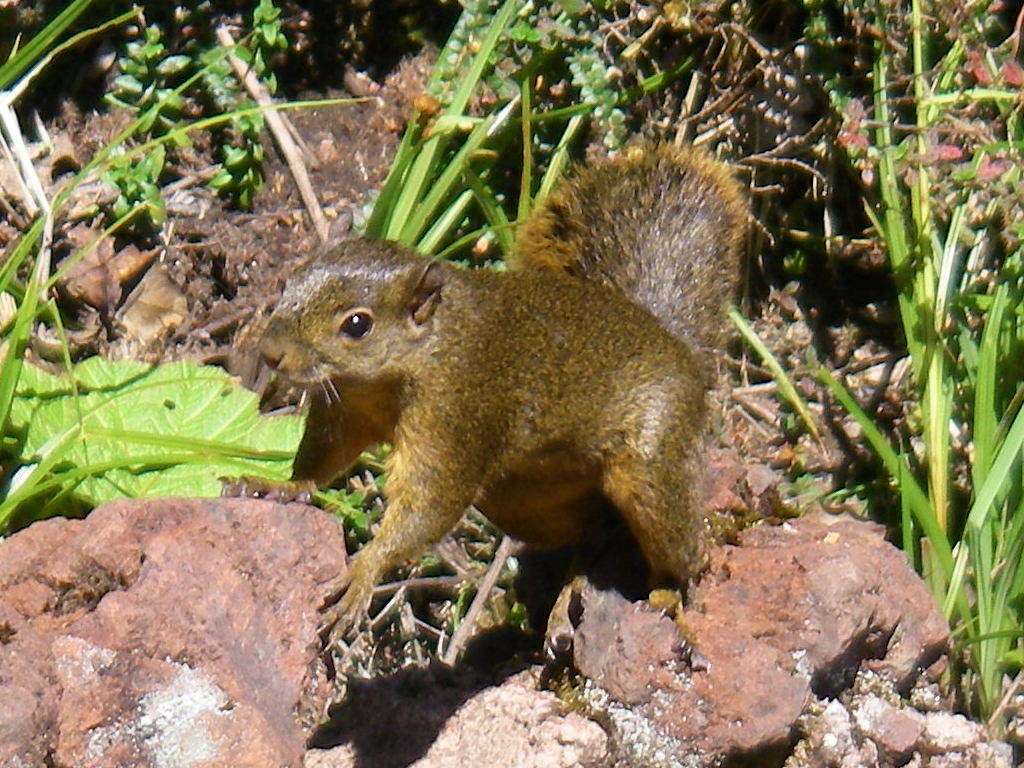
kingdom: Animalia
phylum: Chordata
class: Mammalia
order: Rodentia
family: Sciuridae
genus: Sciurus
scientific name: Sciurus granatensis
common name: Red-tailed squirrel
